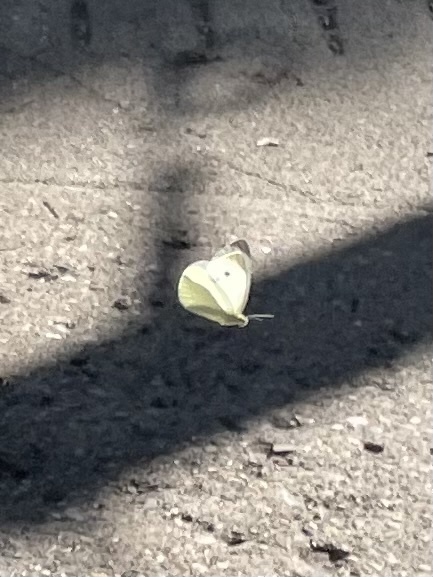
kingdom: Animalia
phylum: Arthropoda
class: Insecta
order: Lepidoptera
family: Pieridae
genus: Pieris
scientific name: Pieris rapae
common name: Small white
